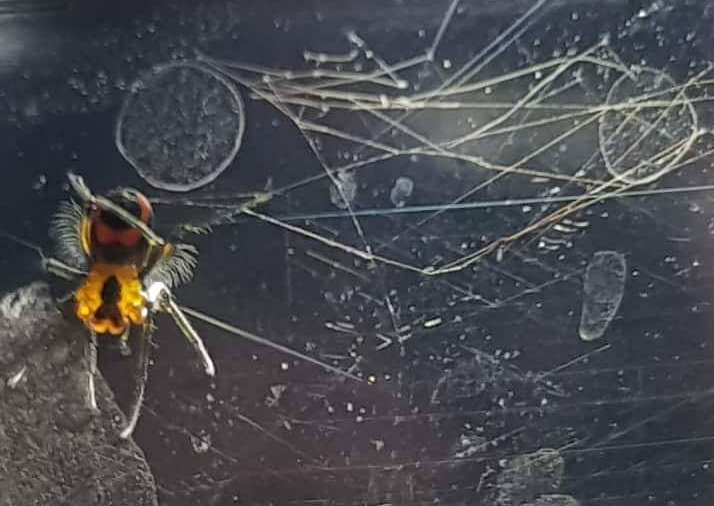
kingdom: Animalia
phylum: Arthropoda
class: Arachnida
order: Araneae
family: Tetragnathidae
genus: Leucauge
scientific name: Leucauge fastigata
